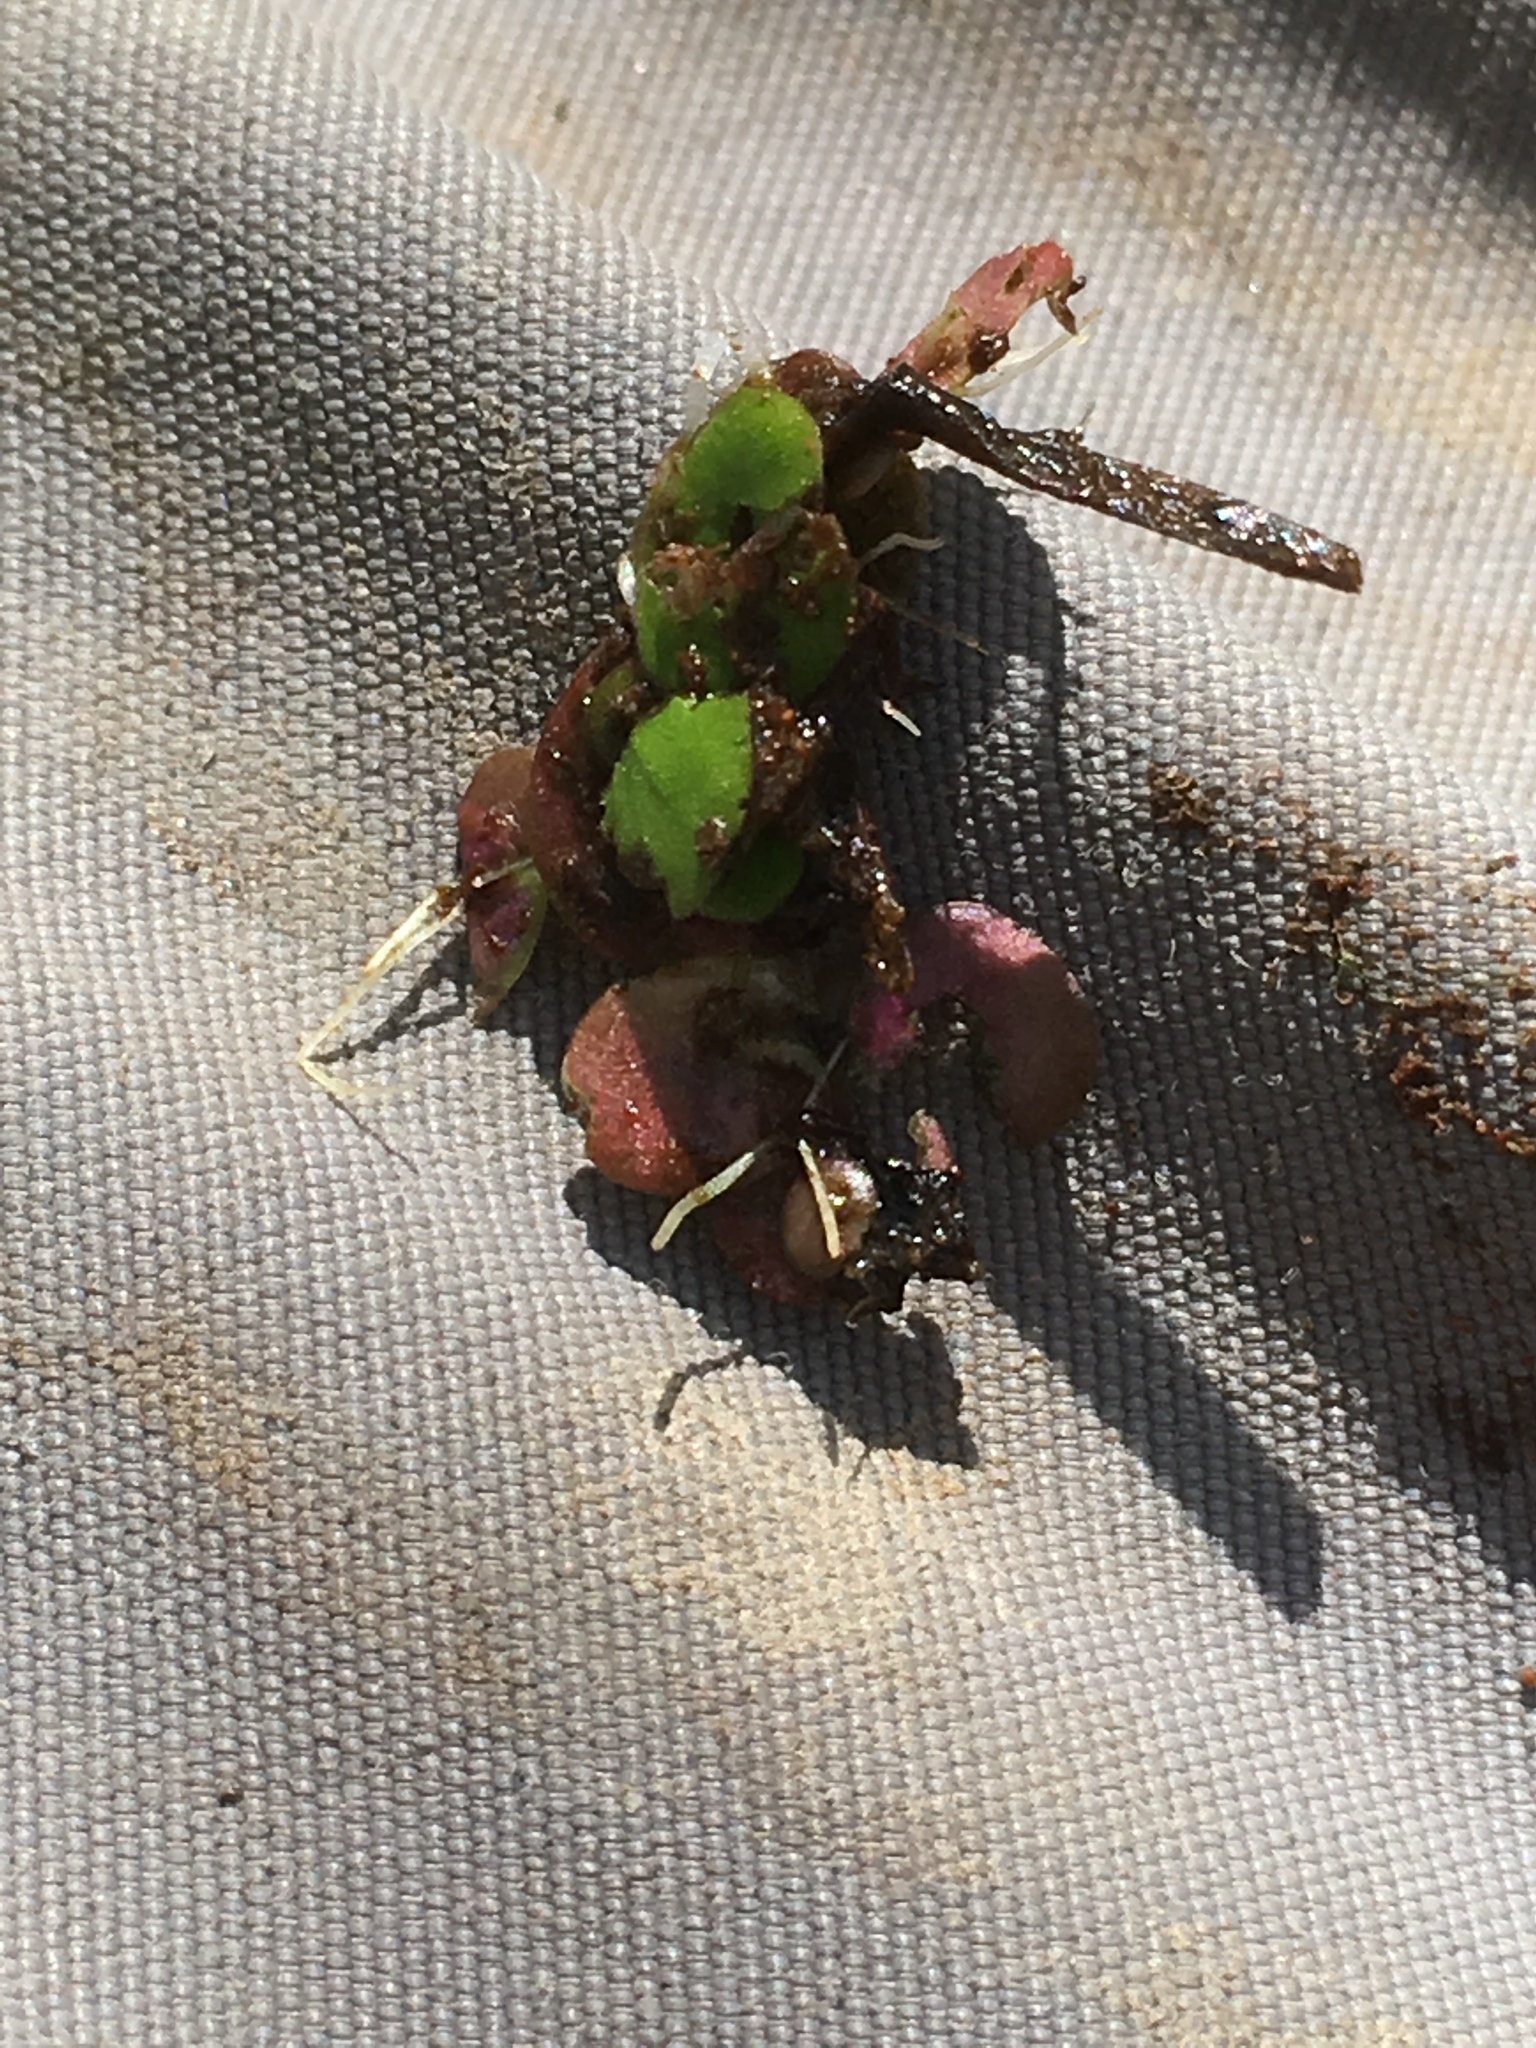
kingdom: Plantae
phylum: Tracheophyta
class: Liliopsida
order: Alismatales
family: Araceae
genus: Spirodela
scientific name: Spirodela polyrhiza
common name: Great duckweed
